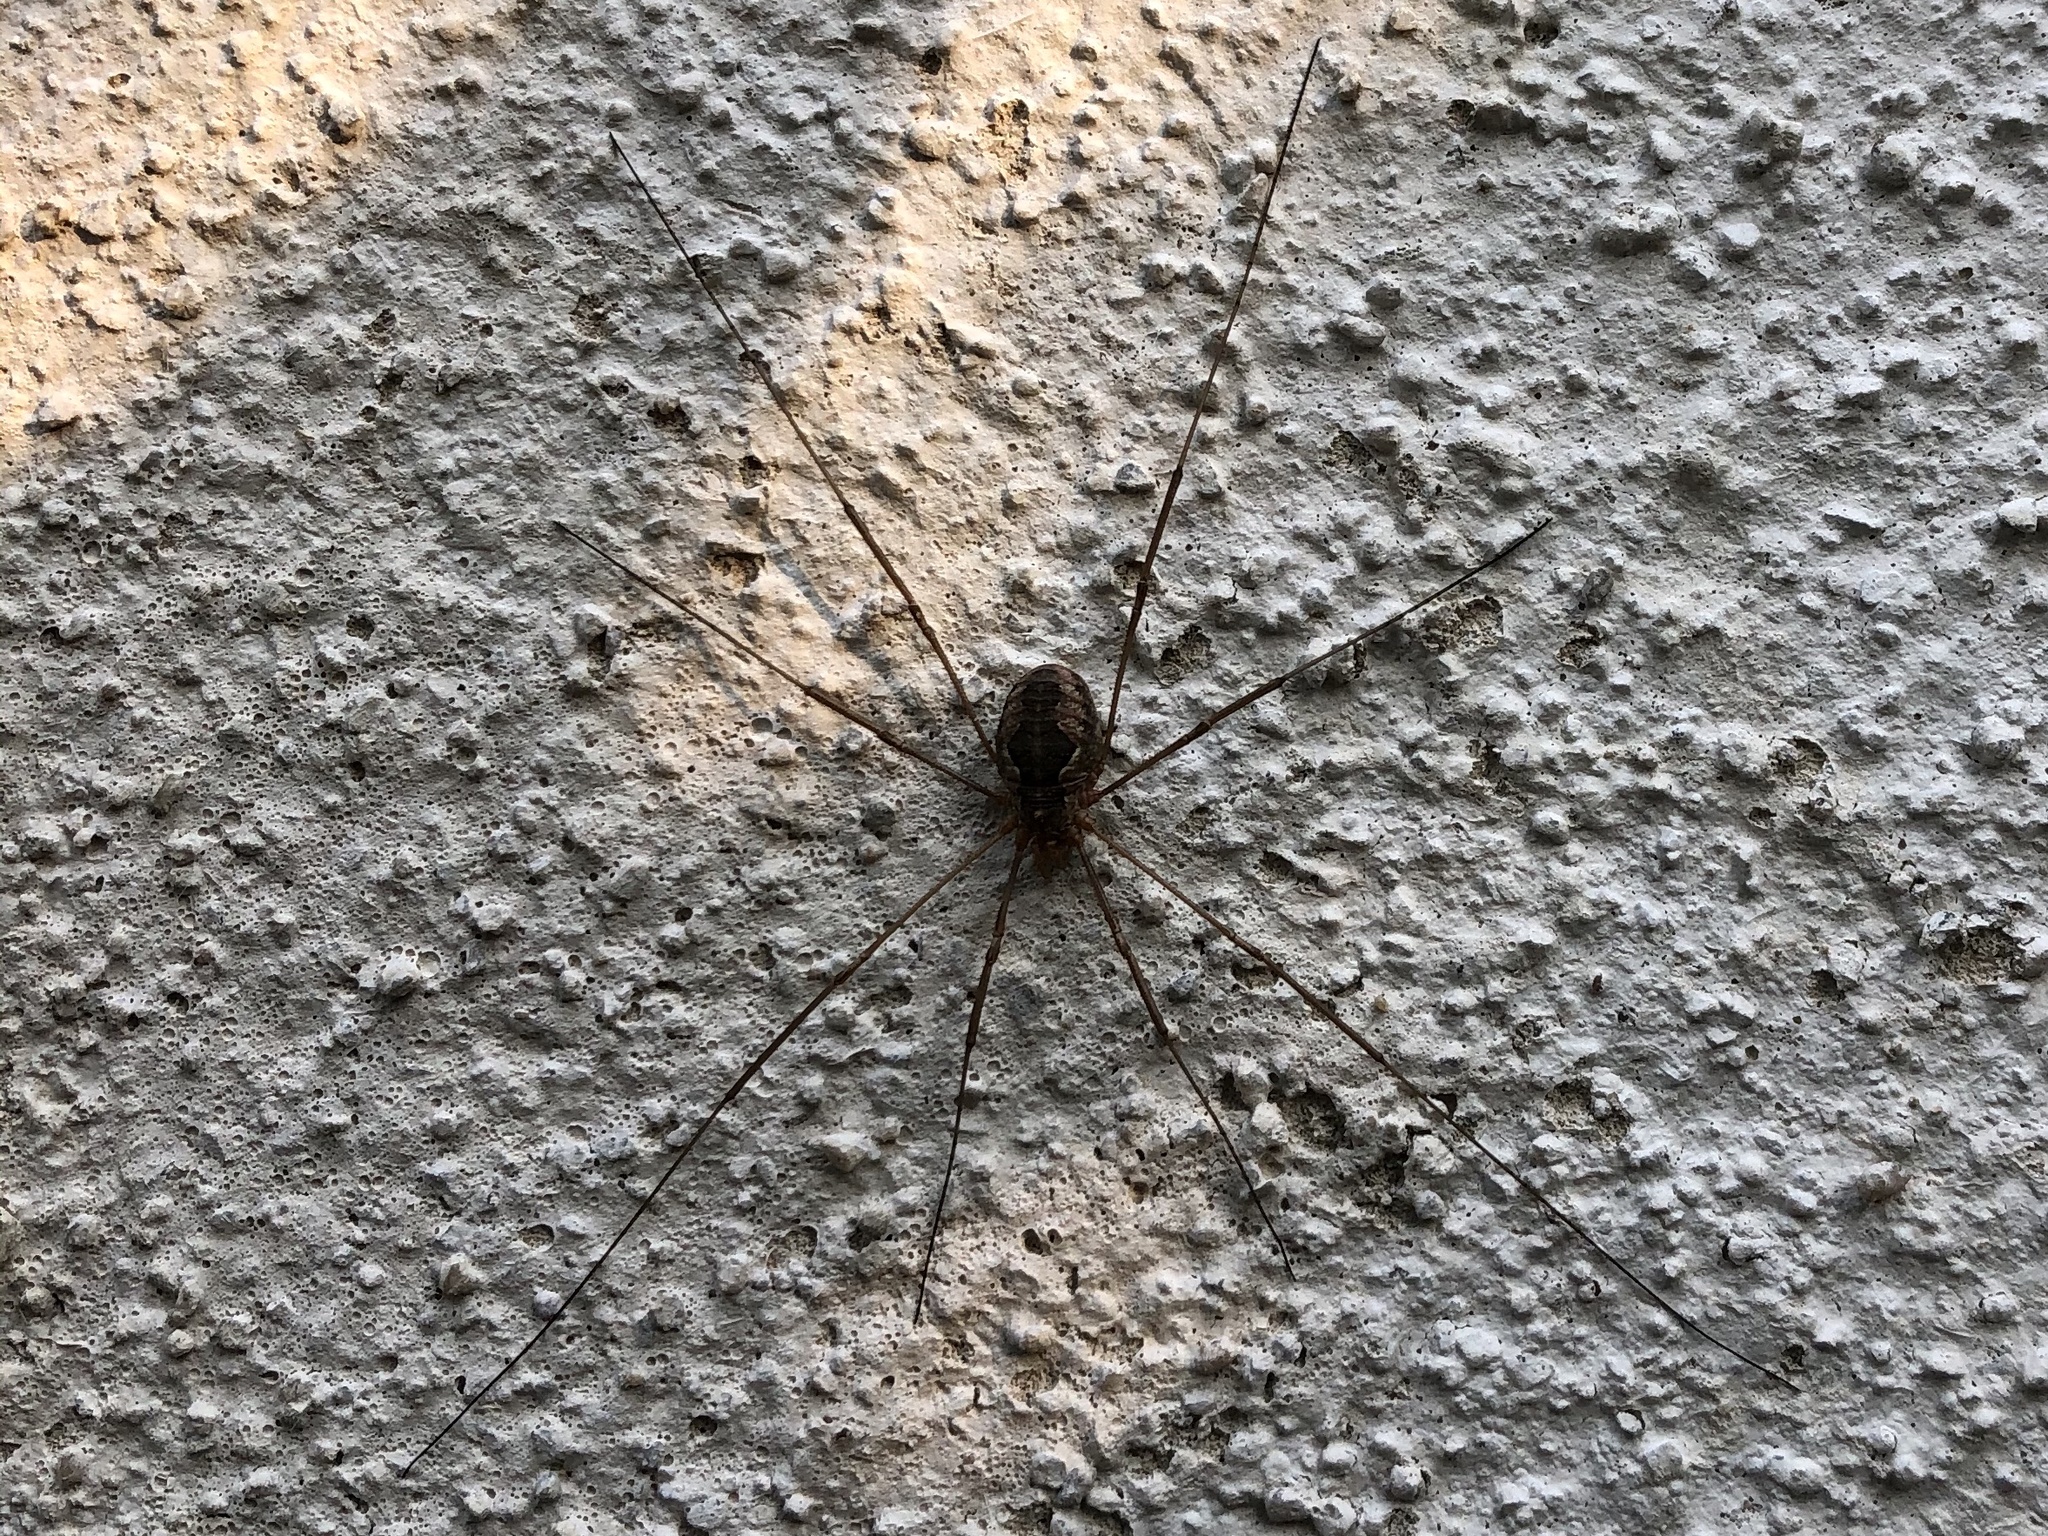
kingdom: Animalia
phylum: Arthropoda
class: Arachnida
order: Opiliones
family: Phalangiidae
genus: Phalangium
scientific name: Phalangium opilio
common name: Daddy longleg
